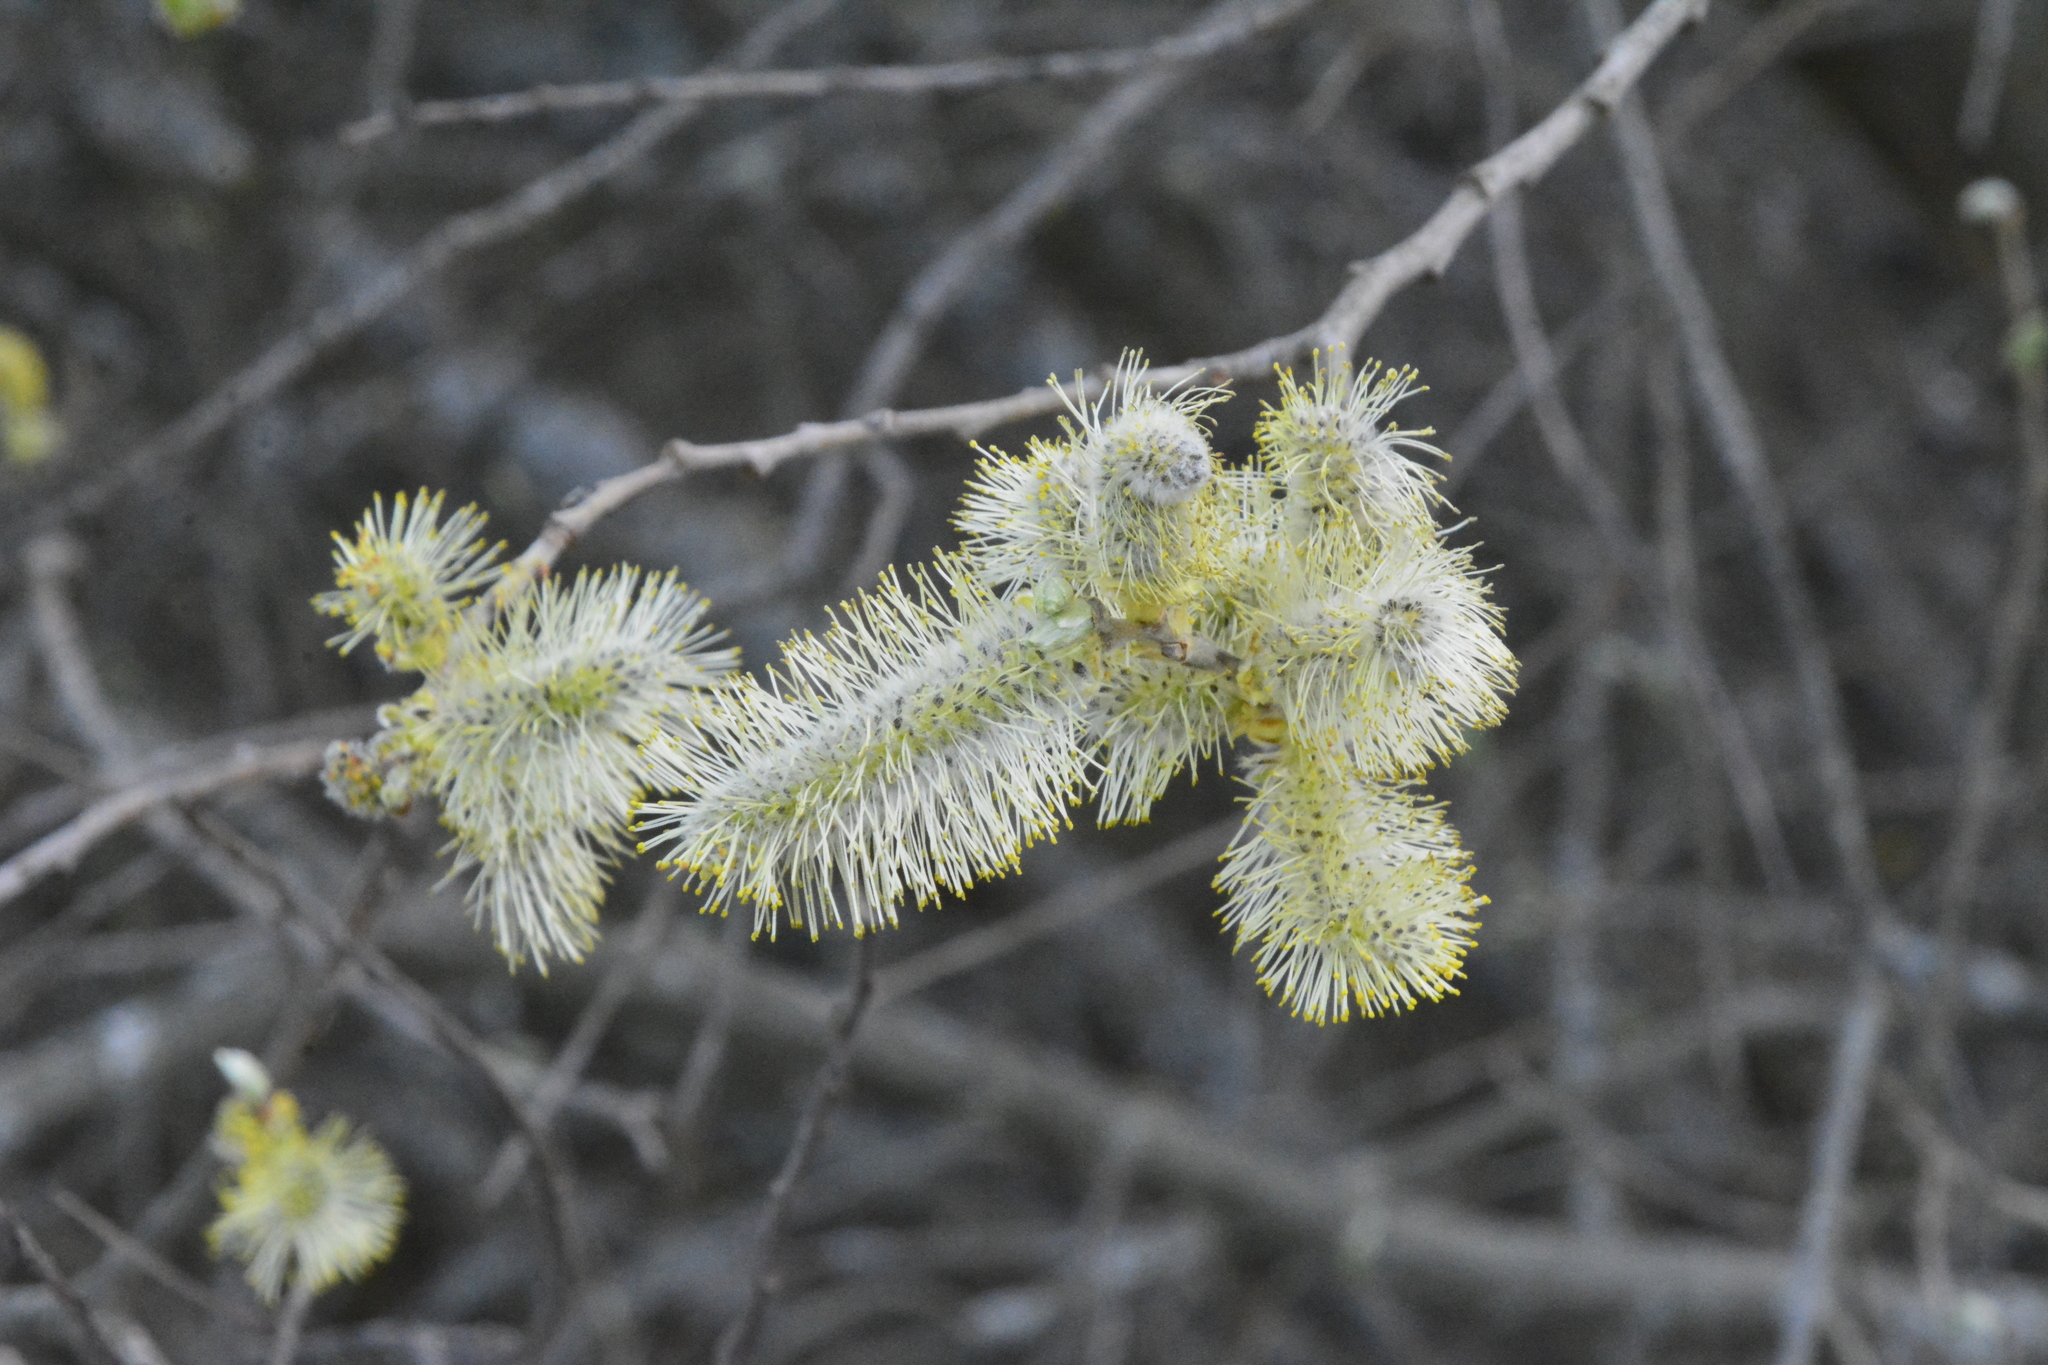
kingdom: Plantae
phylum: Tracheophyta
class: Magnoliopsida
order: Malpighiales
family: Salicaceae
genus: Salix
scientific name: Salix cinerea
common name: Common sallow
